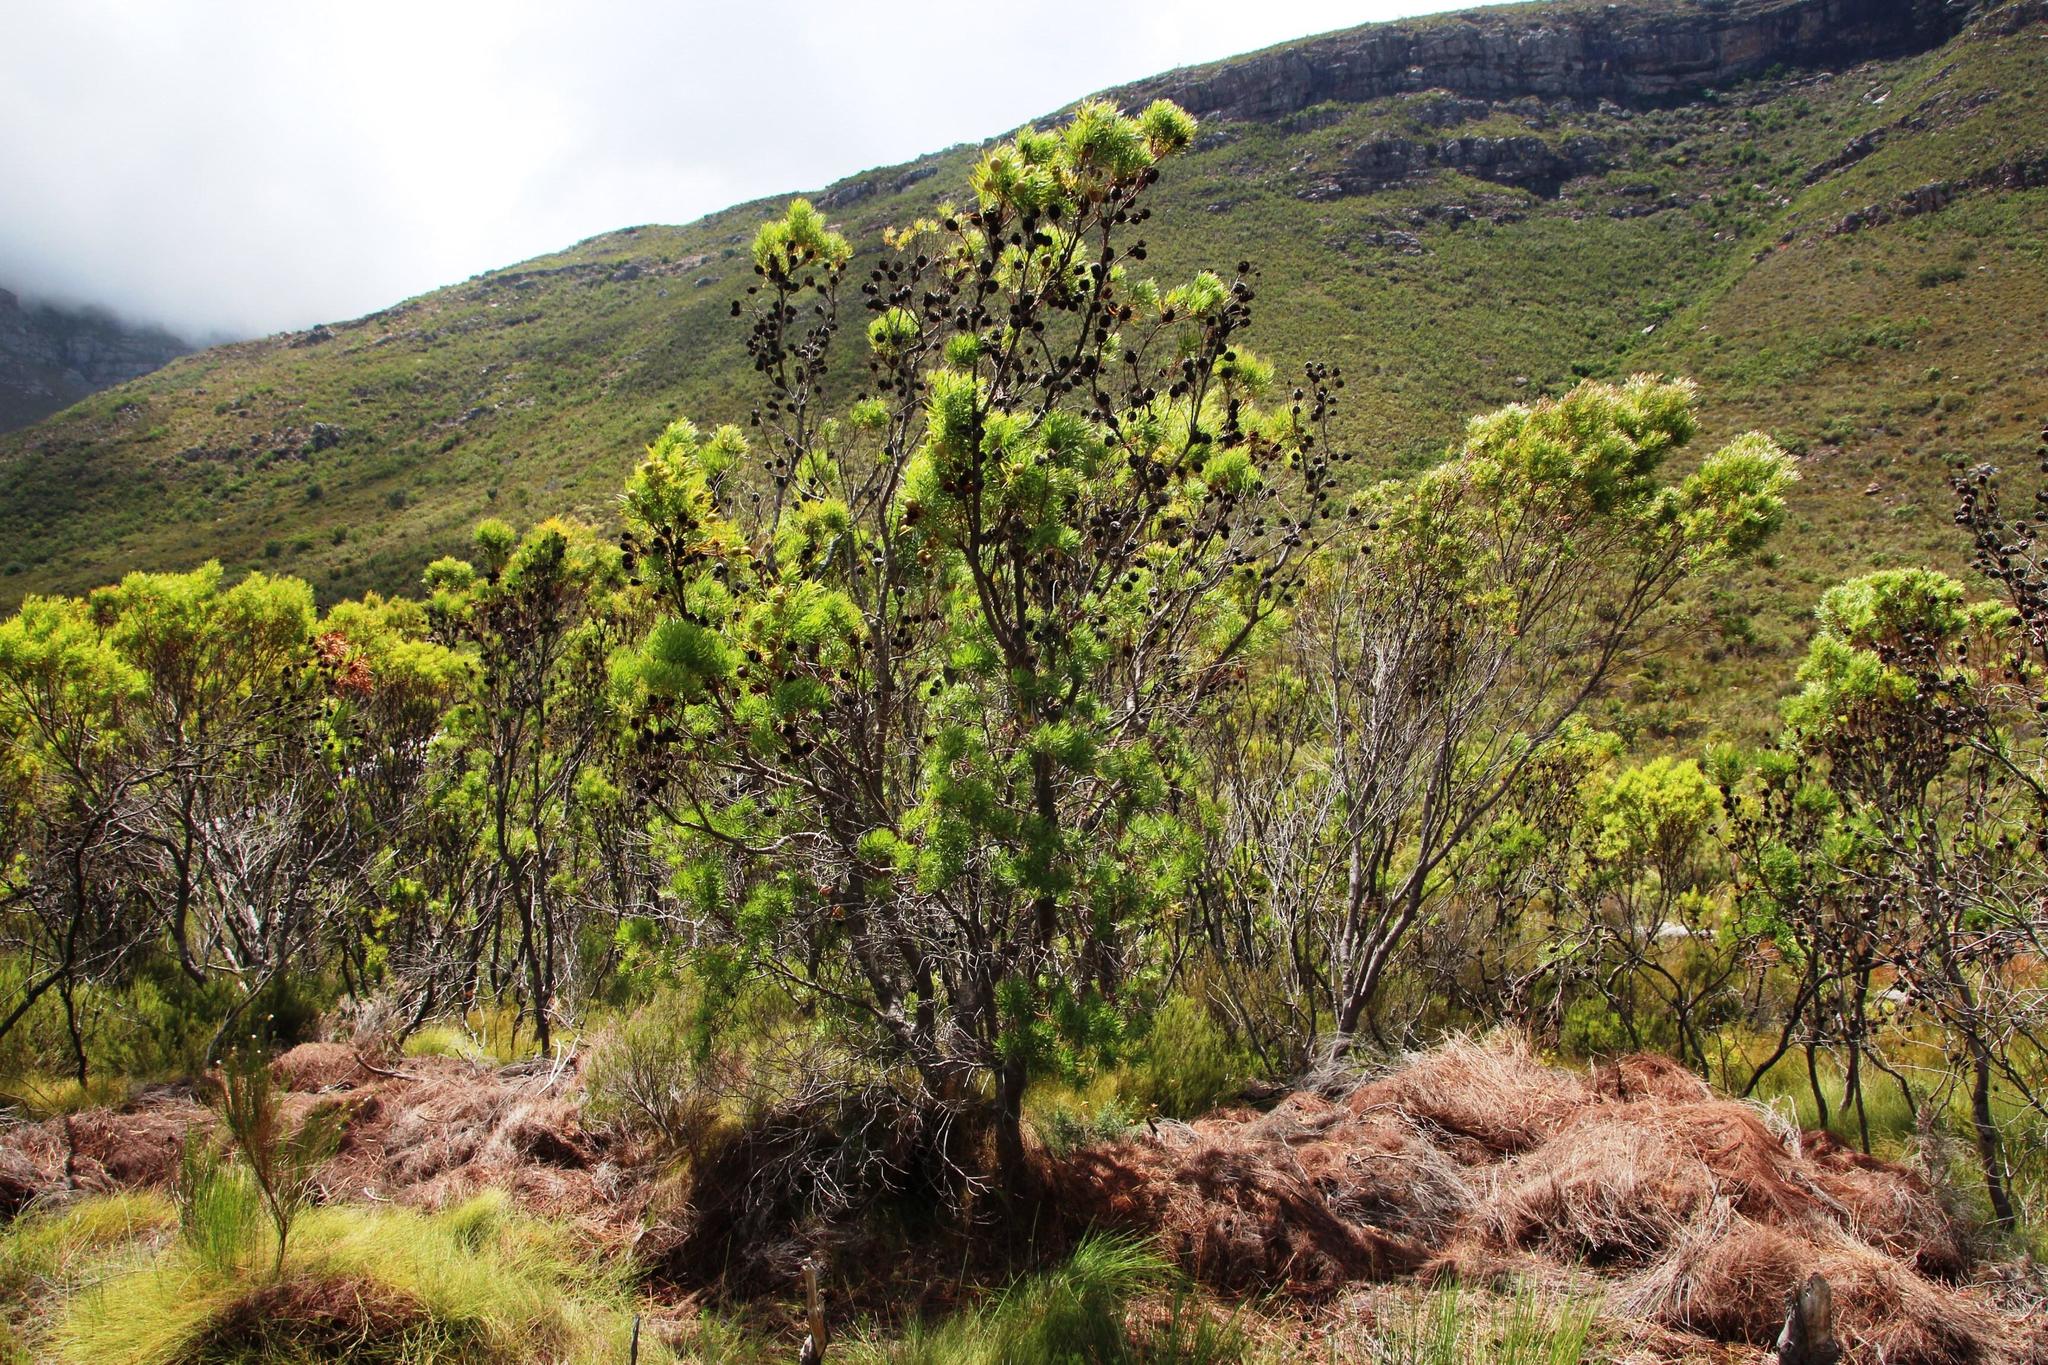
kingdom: Plantae
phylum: Tracheophyta
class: Magnoliopsida
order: Proteales
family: Proteaceae
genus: Leucadendron
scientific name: Leucadendron salicifolium
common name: Common stream conebush
